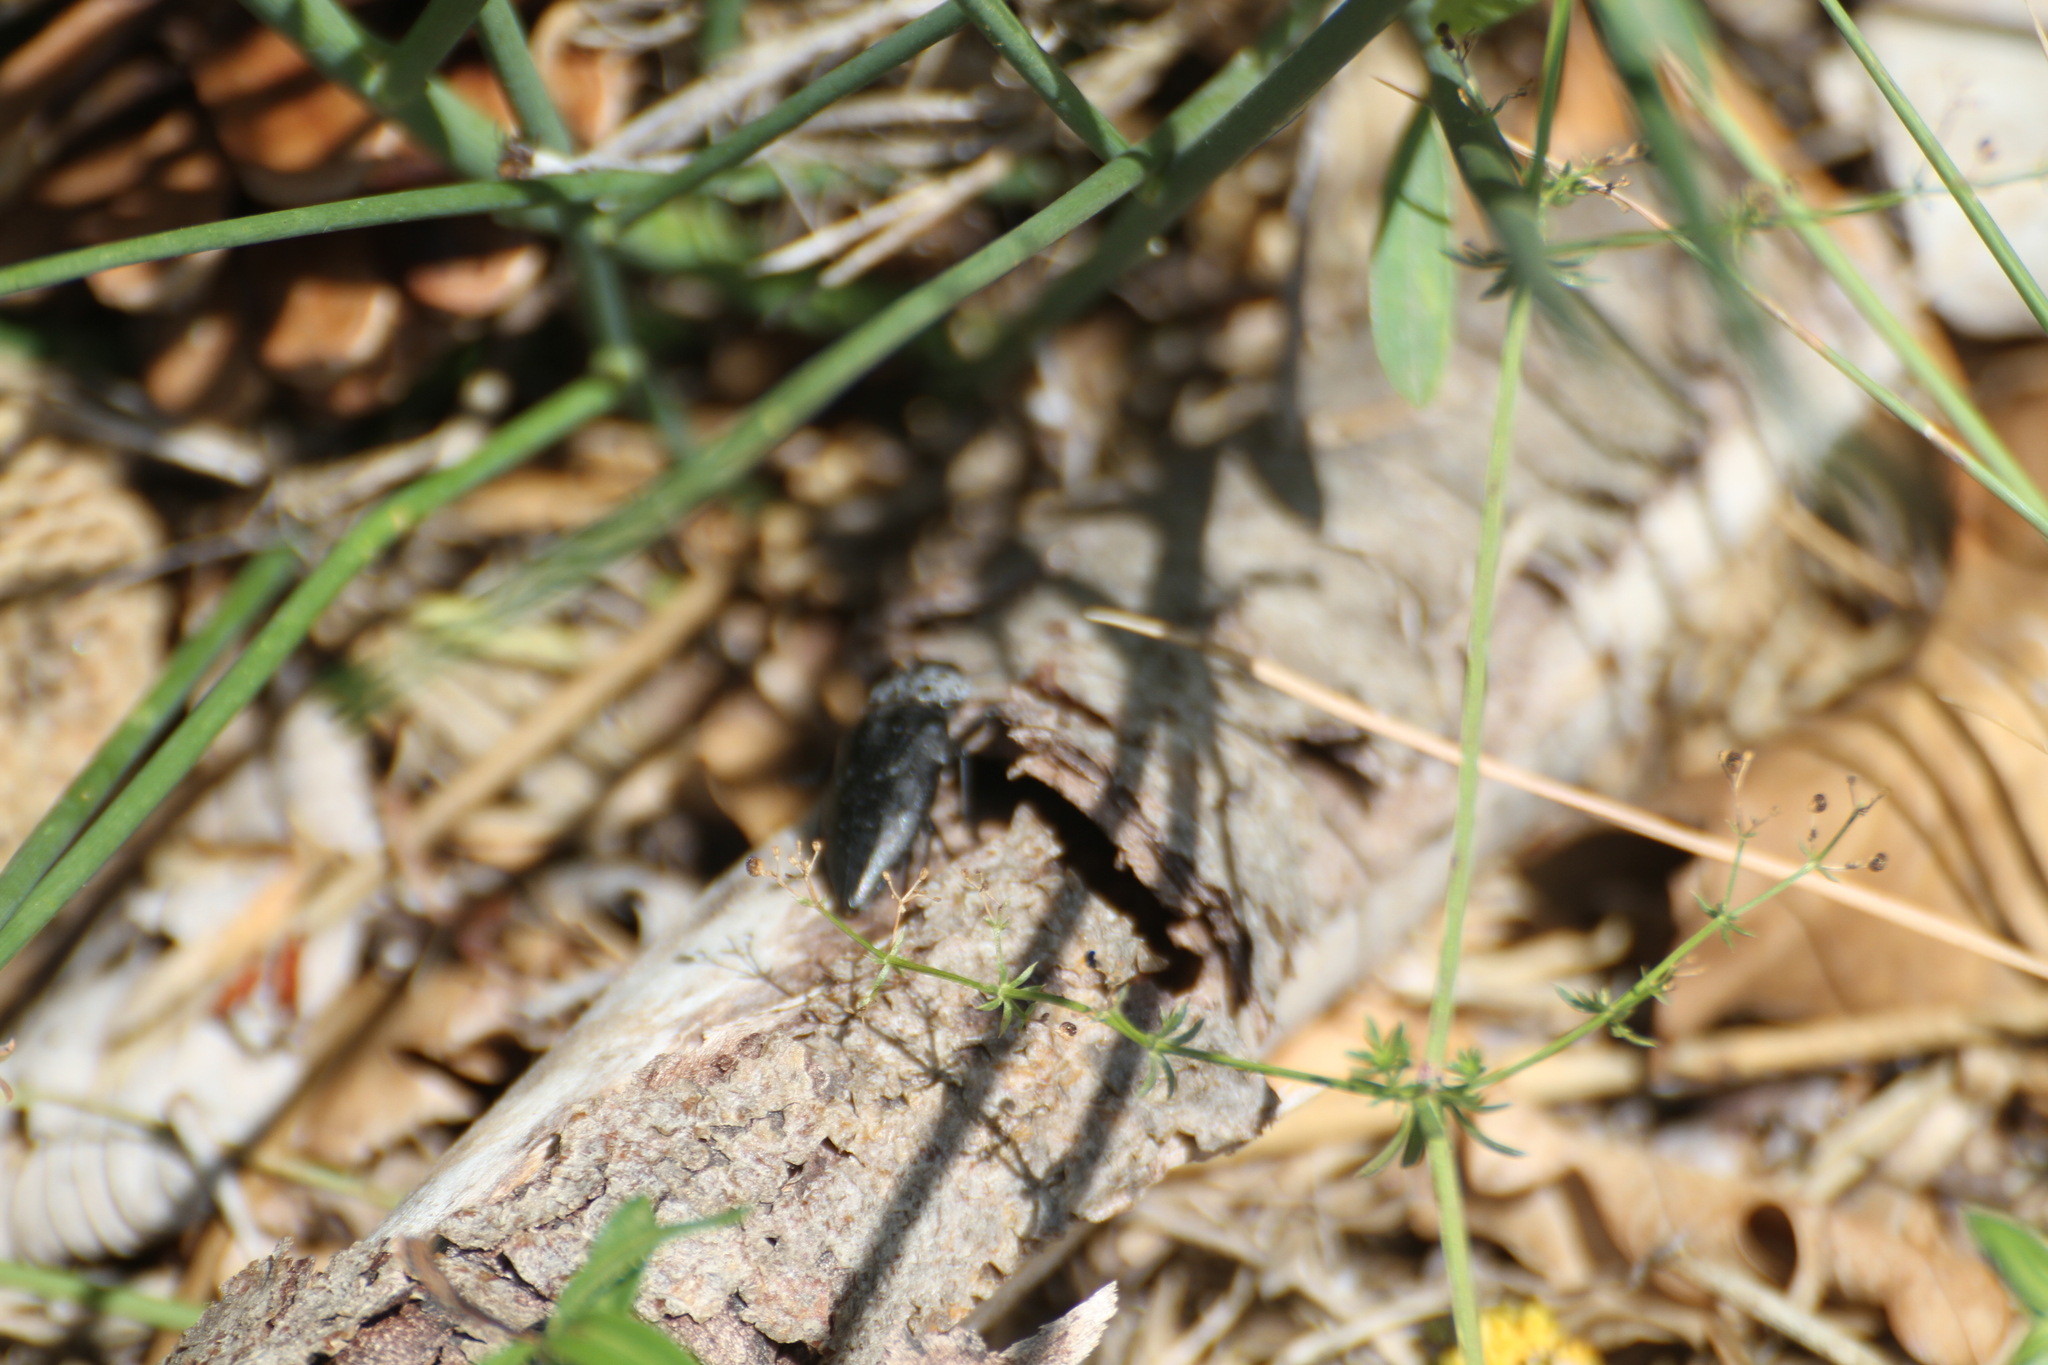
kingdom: Animalia
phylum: Arthropoda
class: Insecta
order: Coleoptera
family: Buprestidae
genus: Capnodis
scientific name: Capnodis tenebrionis
